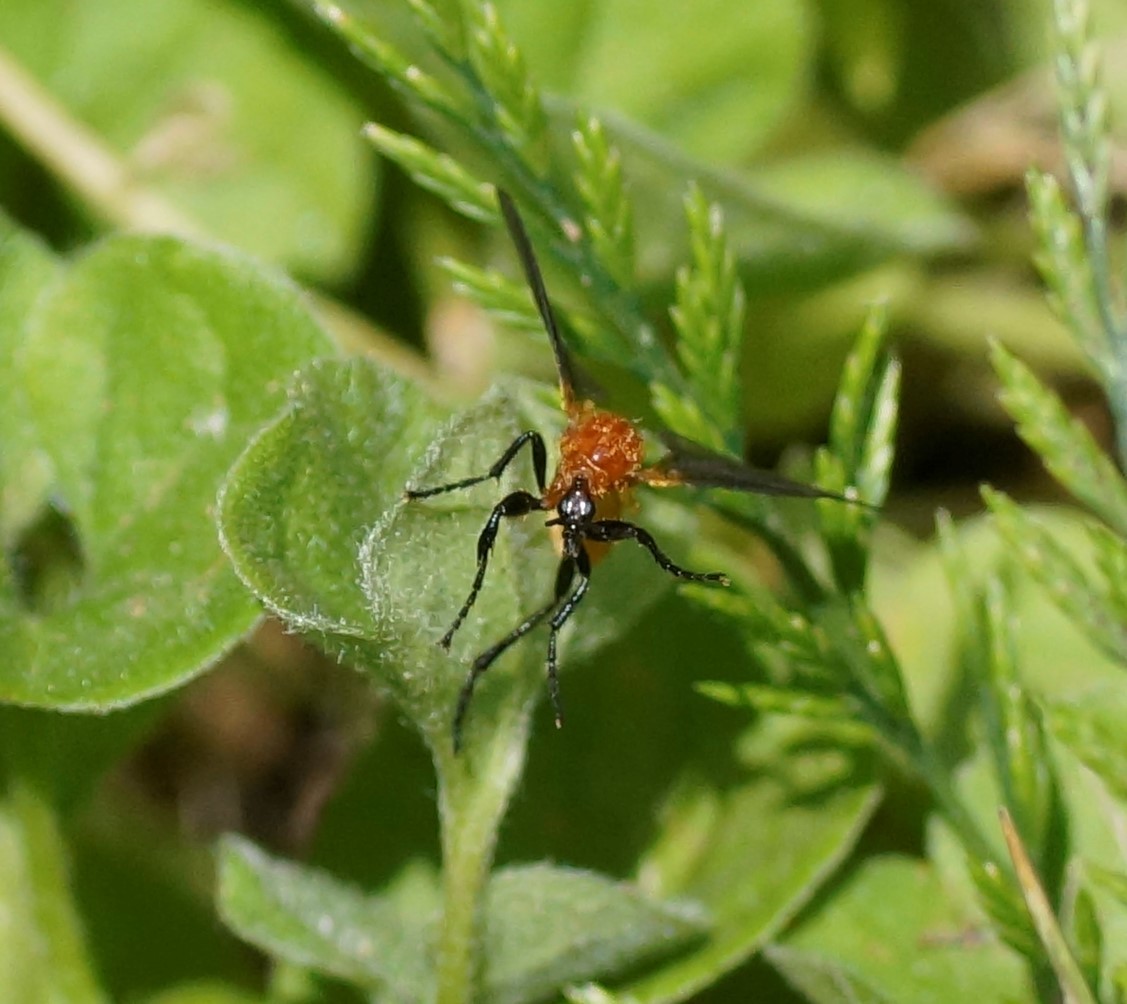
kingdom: Animalia
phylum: Arthropoda
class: Insecta
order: Diptera
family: Bibionidae
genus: Bibio
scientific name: Bibio imitator
